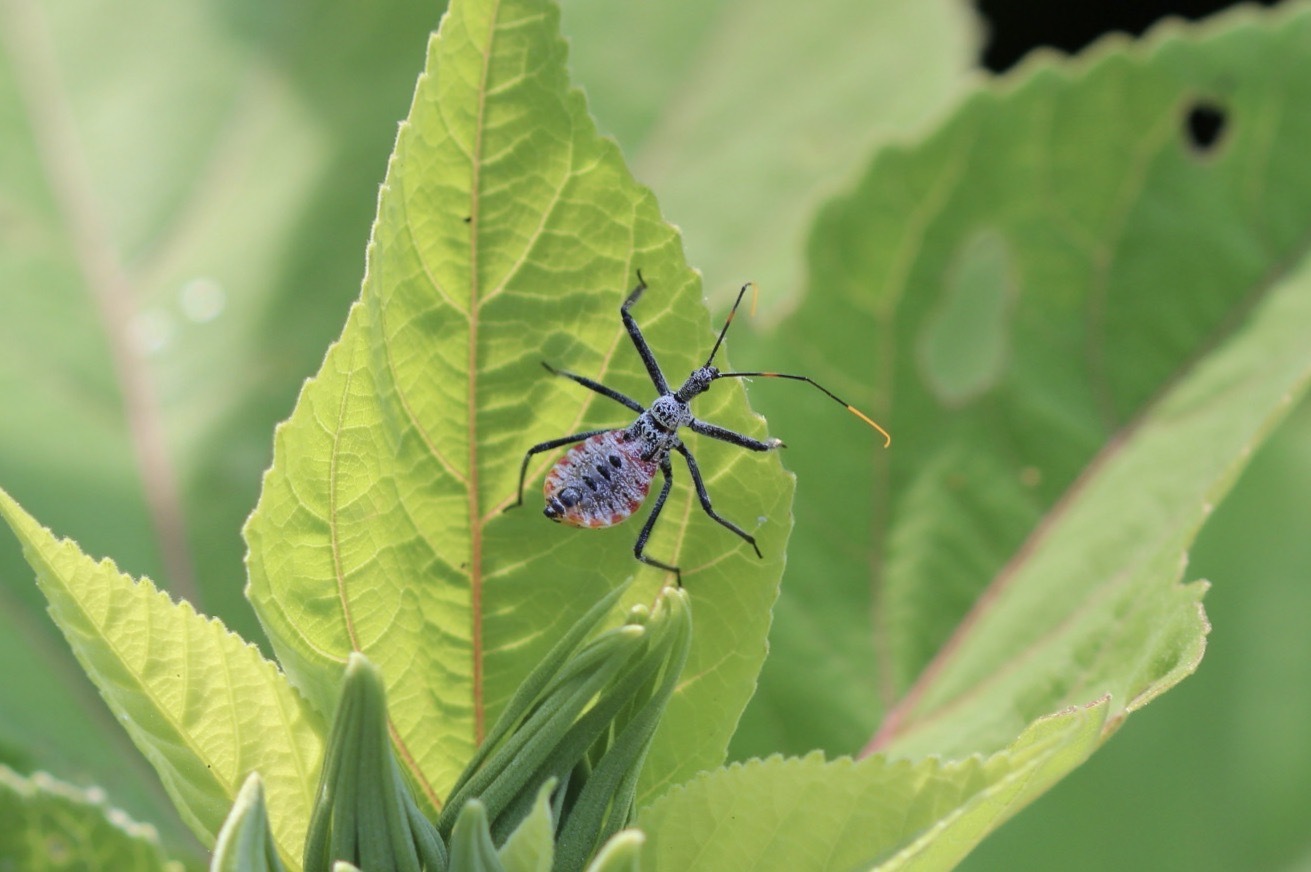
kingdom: Animalia
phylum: Arthropoda
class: Insecta
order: Hemiptera
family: Reduviidae
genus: Arilus
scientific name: Arilus cristatus
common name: North american wheel bug
